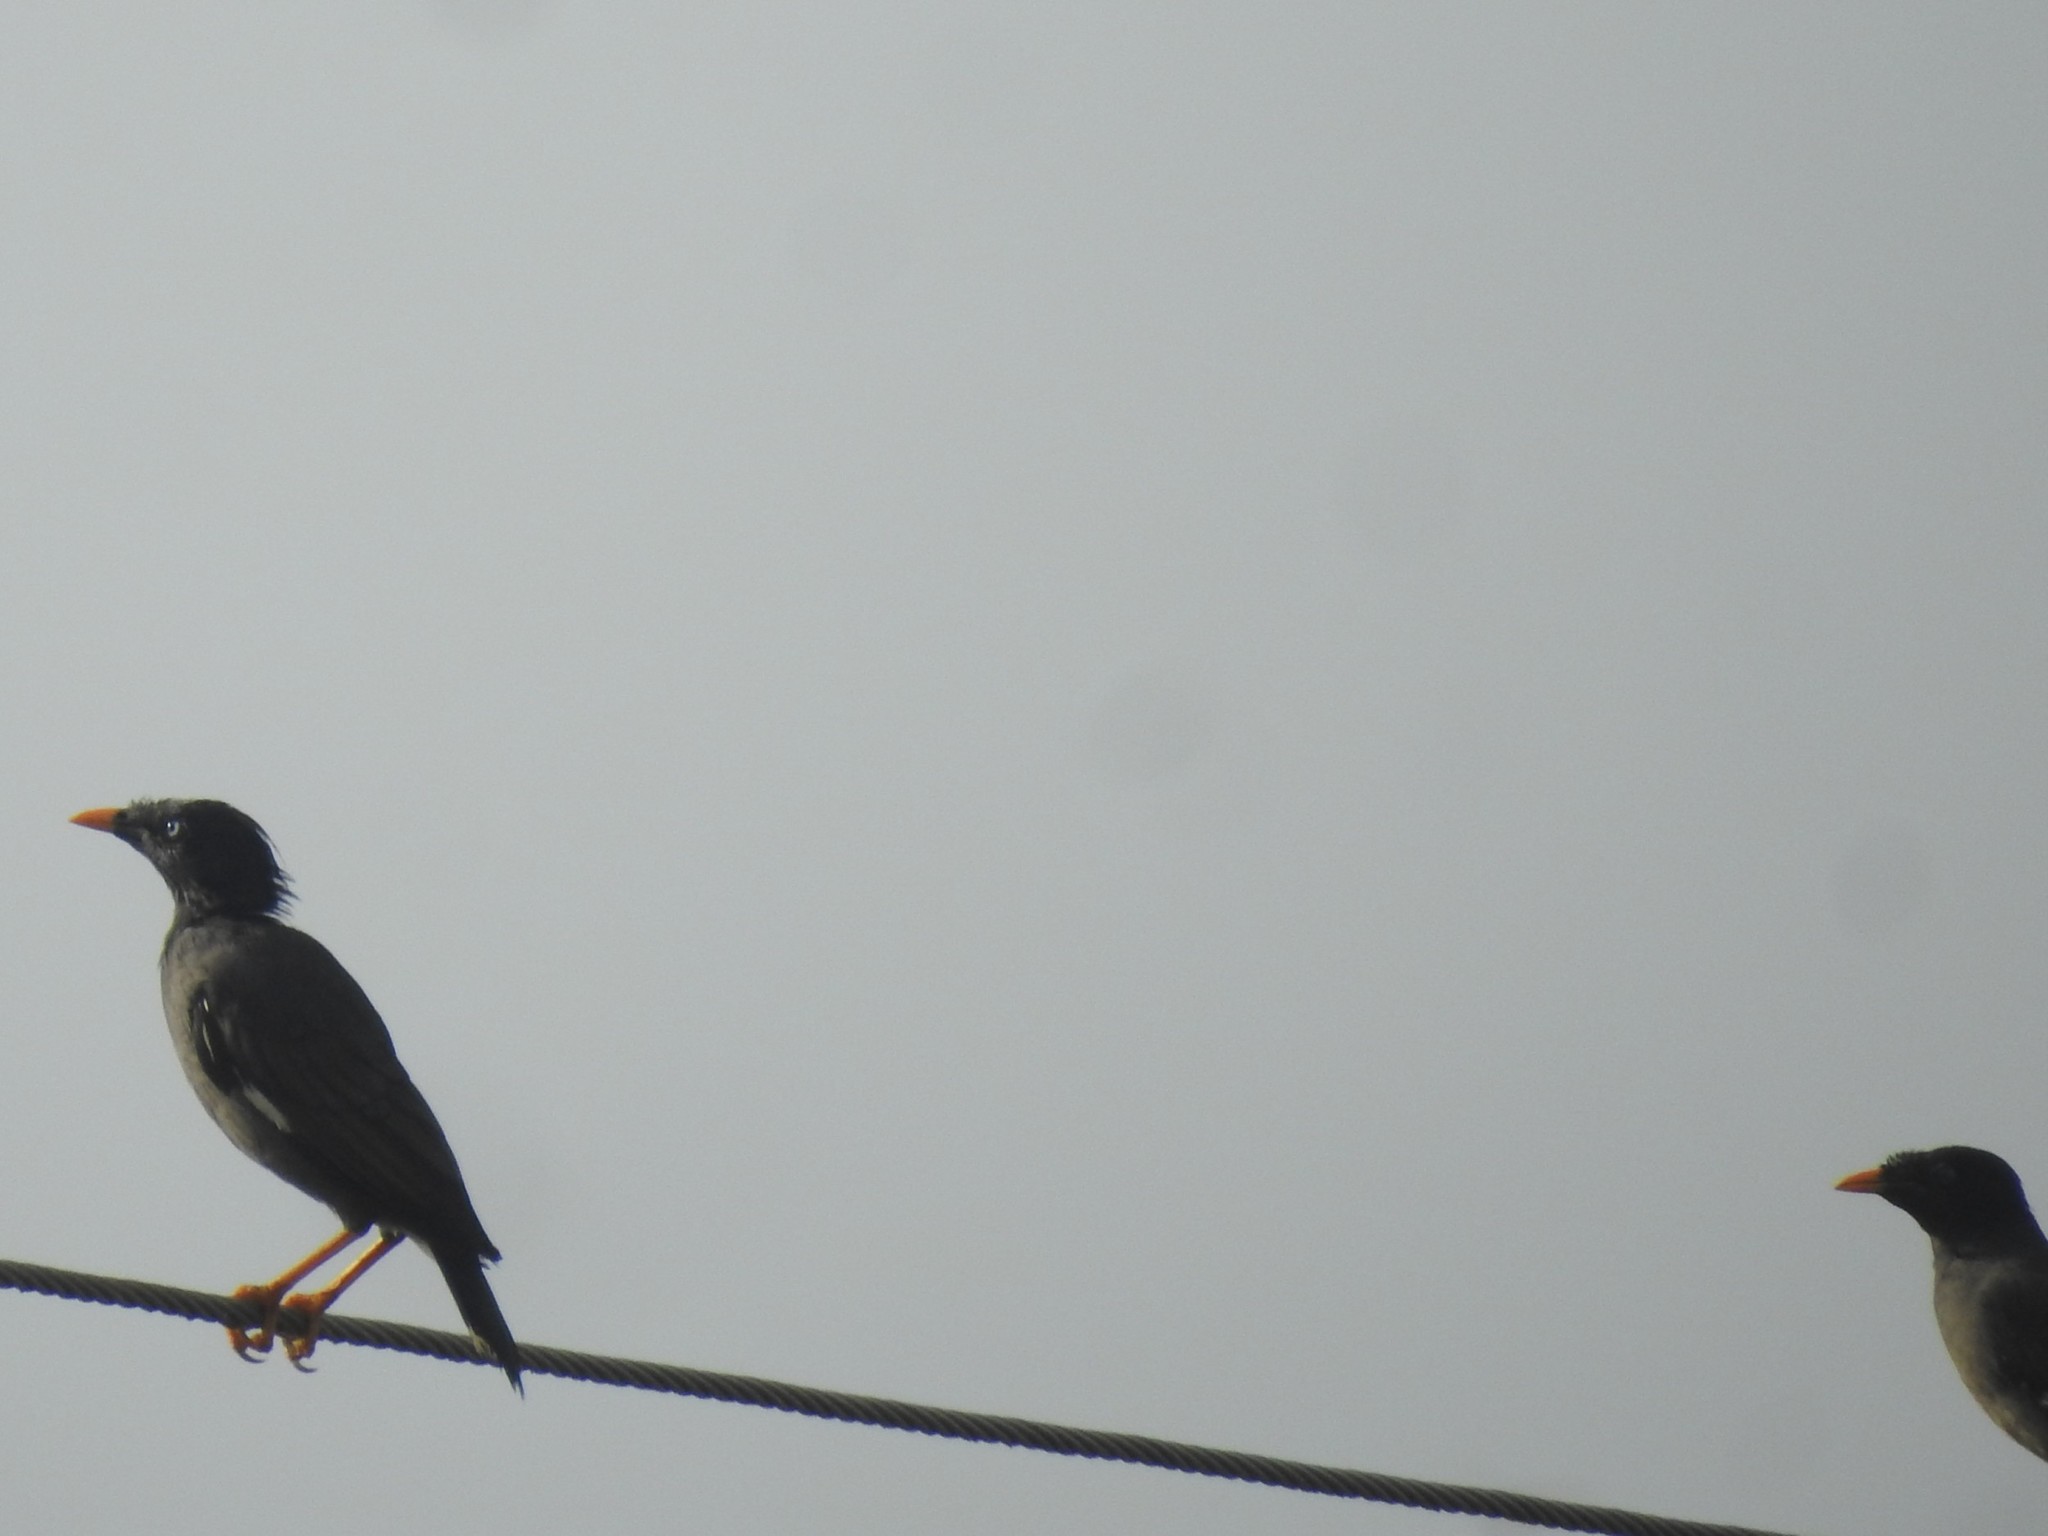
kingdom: Animalia
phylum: Chordata
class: Aves
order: Passeriformes
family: Sturnidae
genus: Acridotheres
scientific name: Acridotheres fuscus
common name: Jungle myna
